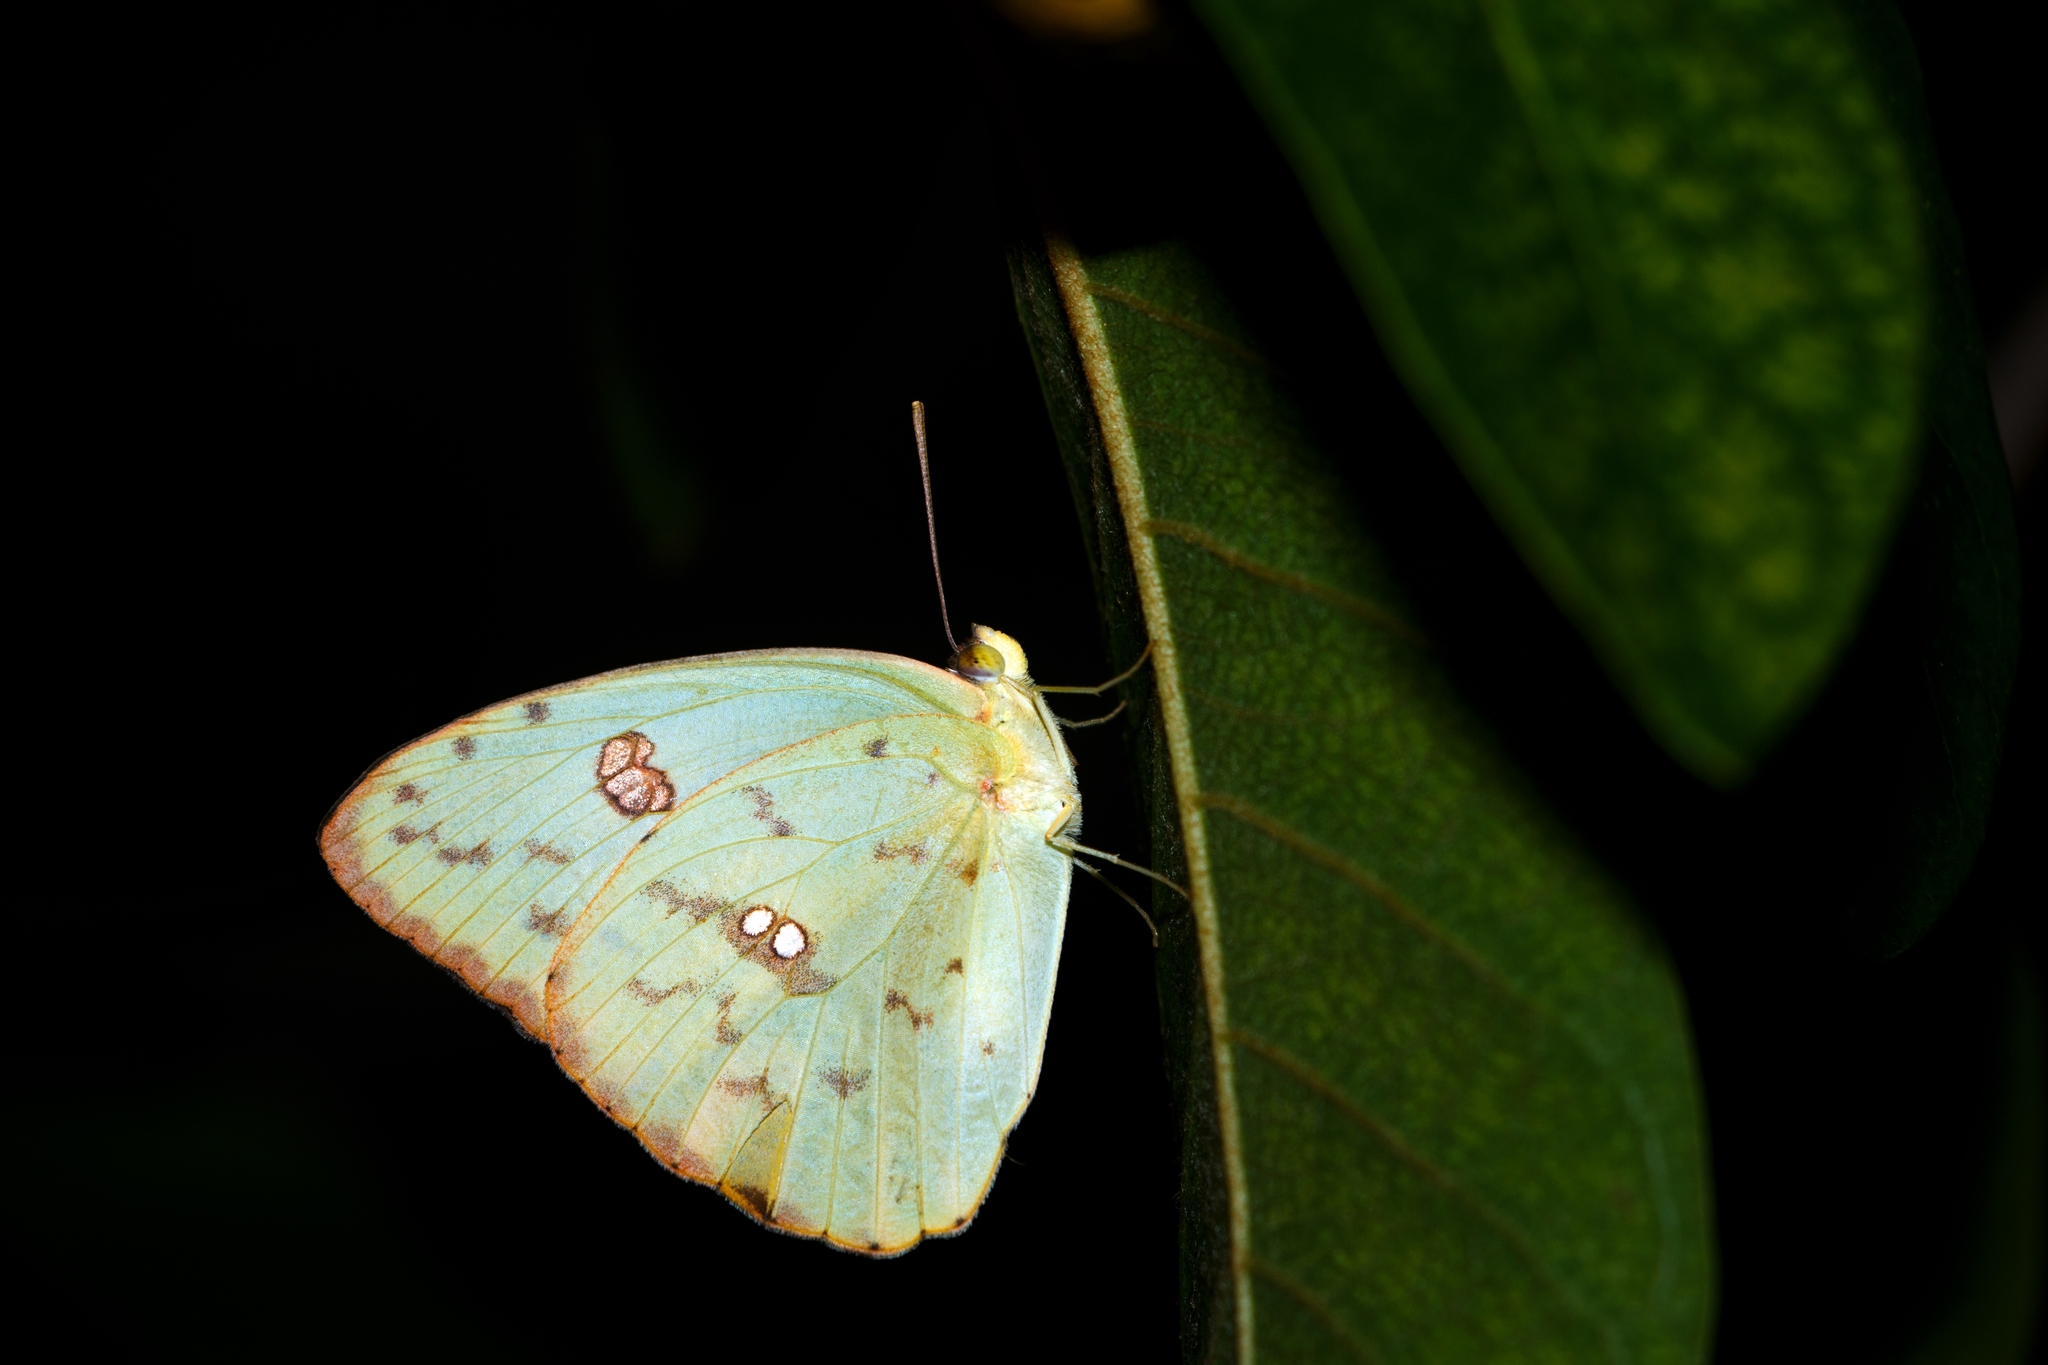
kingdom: Animalia
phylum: Arthropoda
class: Insecta
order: Lepidoptera
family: Pieridae
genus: Phoebis
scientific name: Phoebis marcellina
